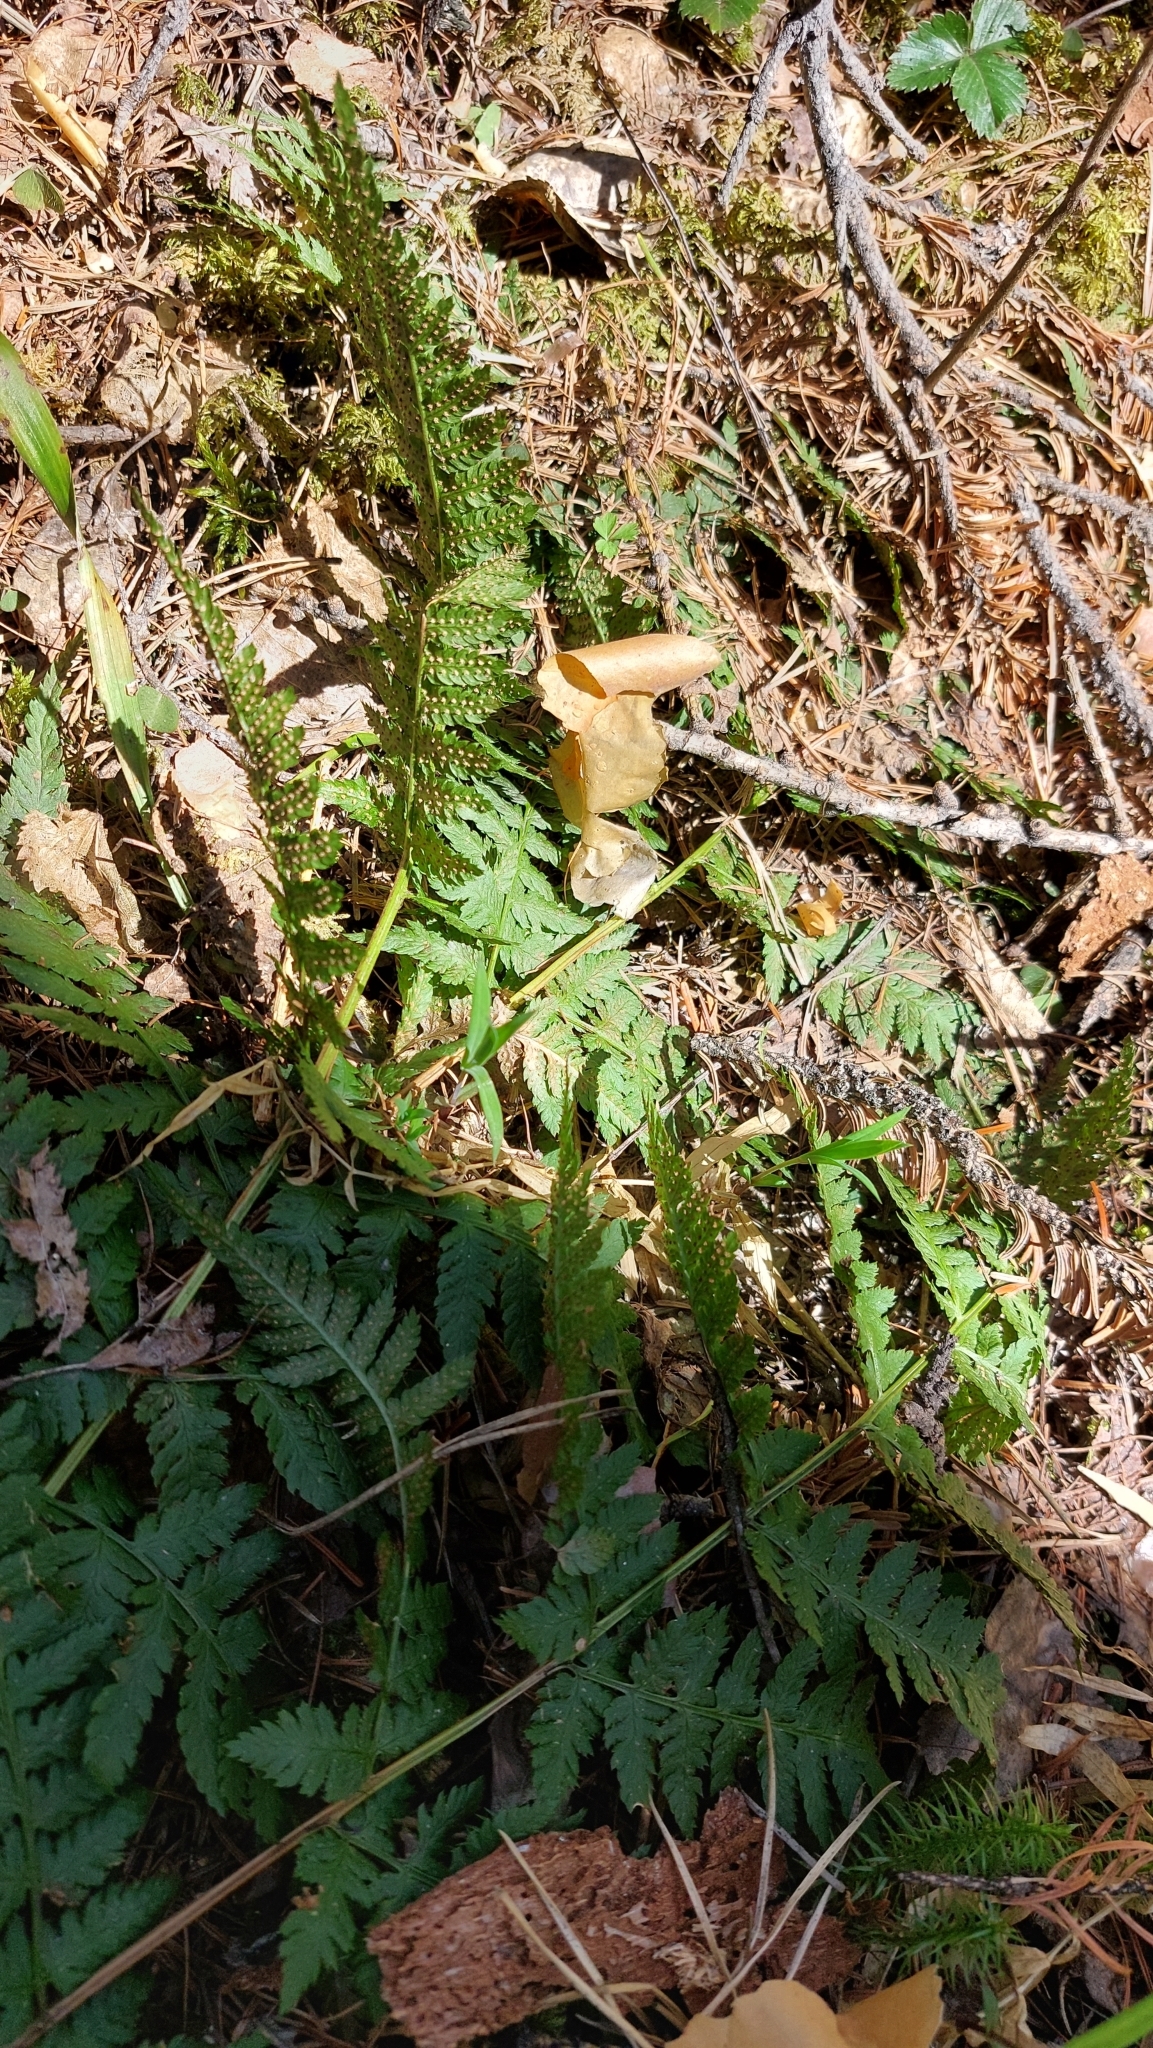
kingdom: Plantae
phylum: Tracheophyta
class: Polypodiopsida
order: Polypodiales
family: Dryopteridaceae
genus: Dryopteris
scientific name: Dryopteris carthusiana
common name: Narrow buckler-fern
